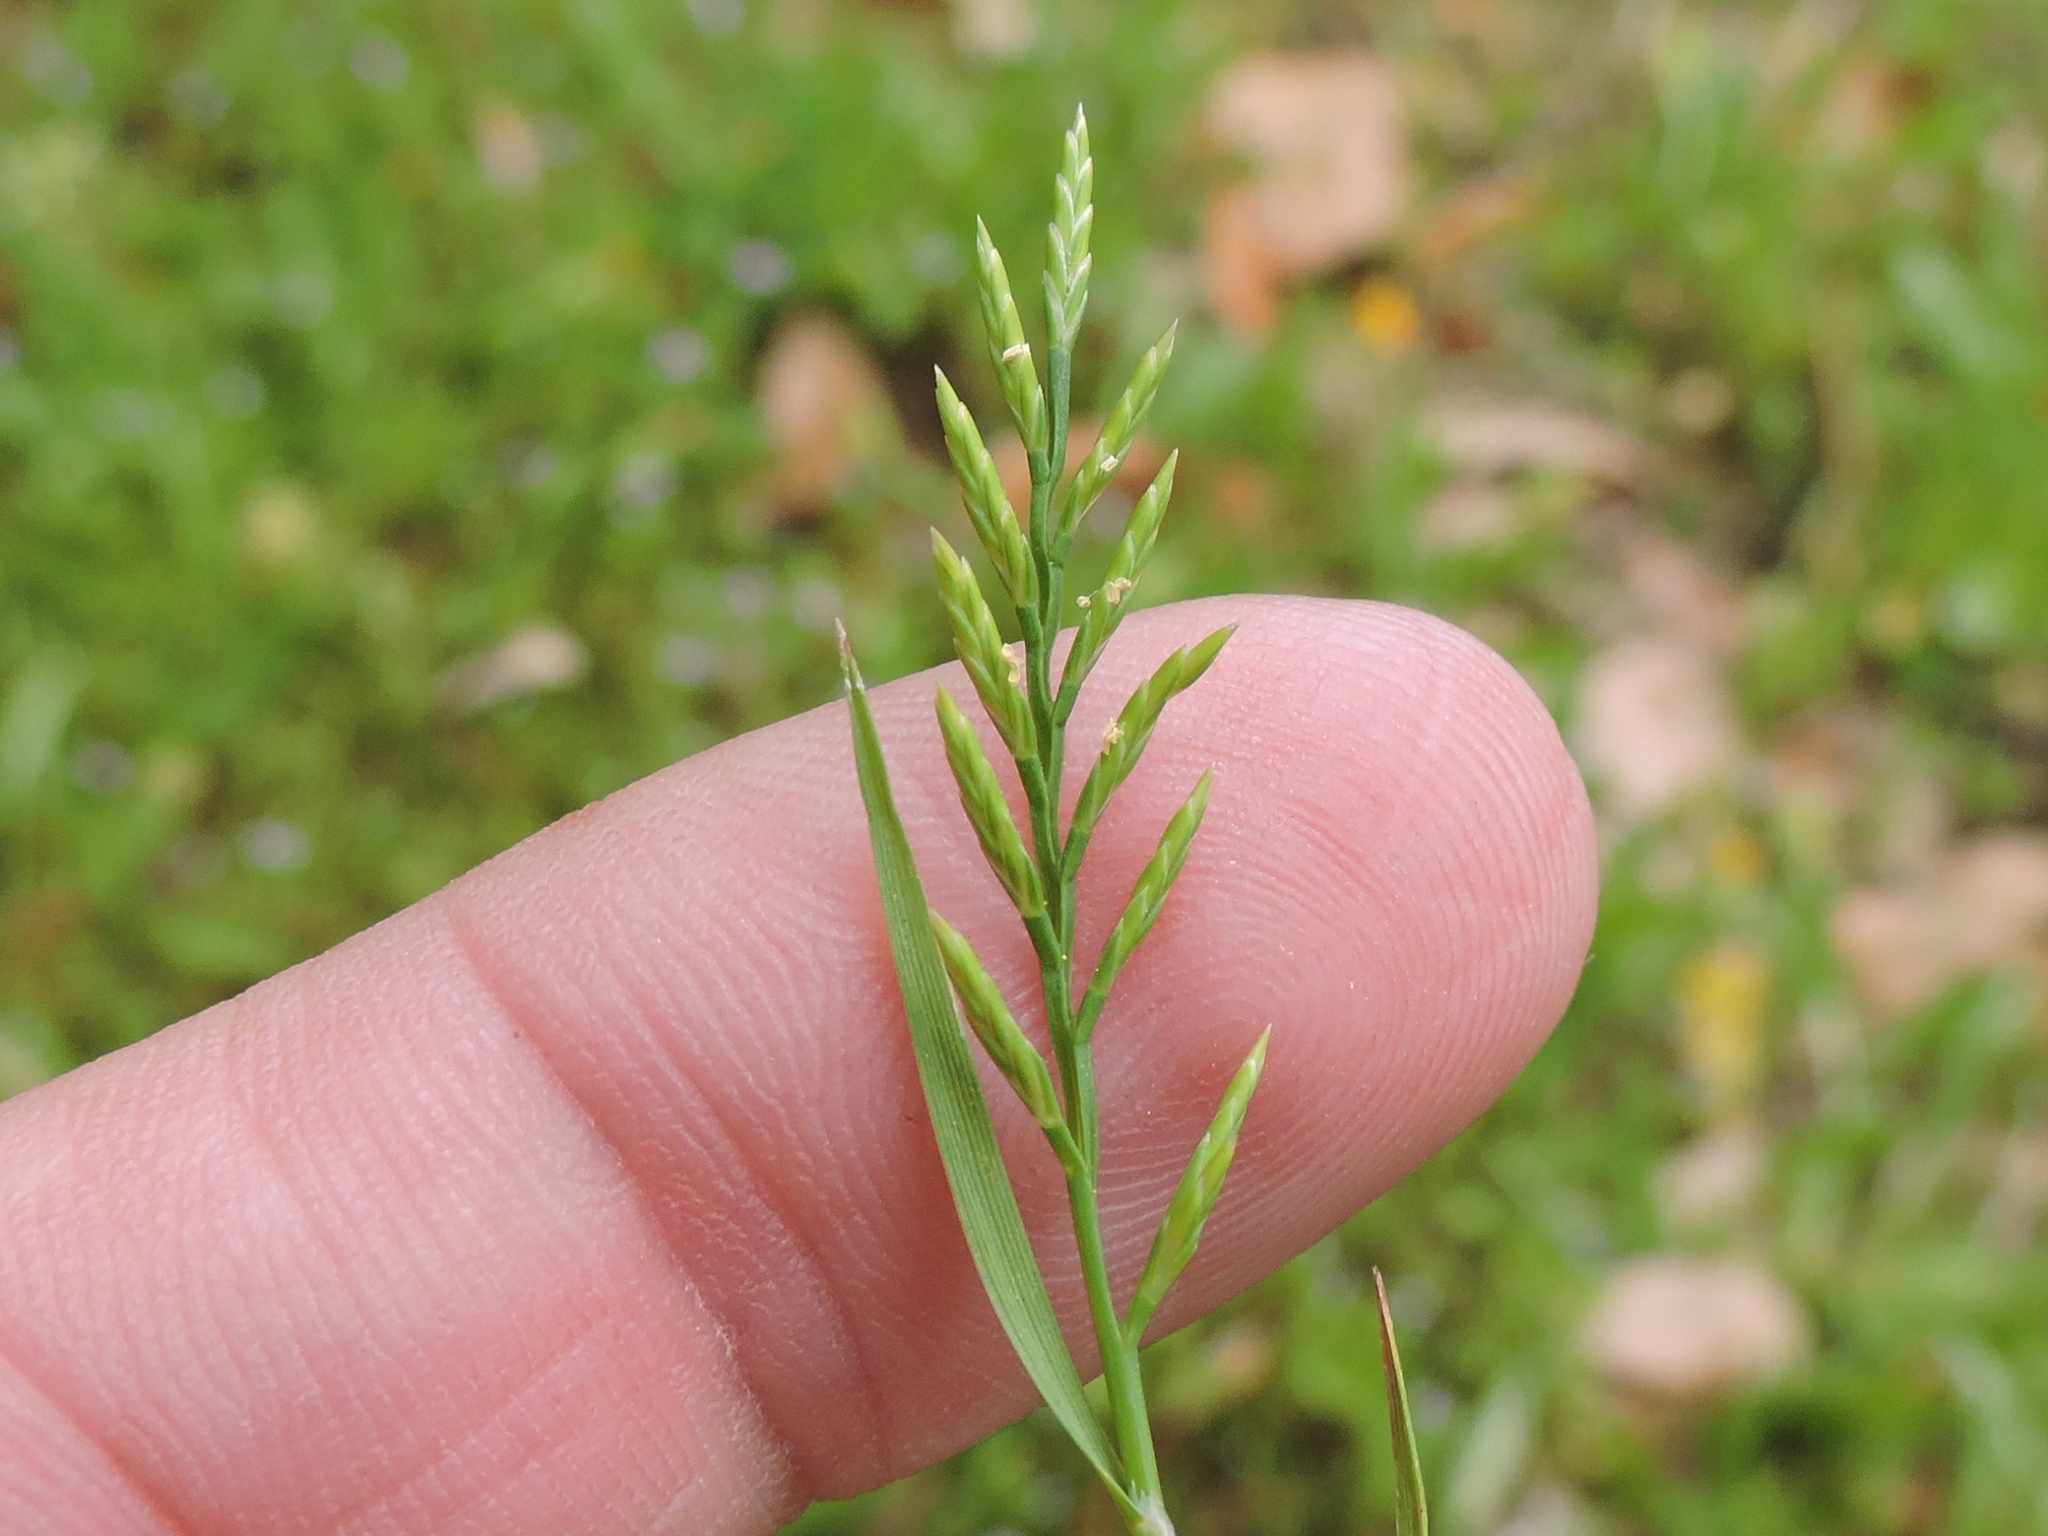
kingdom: Plantae
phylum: Tracheophyta
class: Liliopsida
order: Poales
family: Poaceae
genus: Catapodium
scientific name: Catapodium rigidum
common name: Fern-grass
